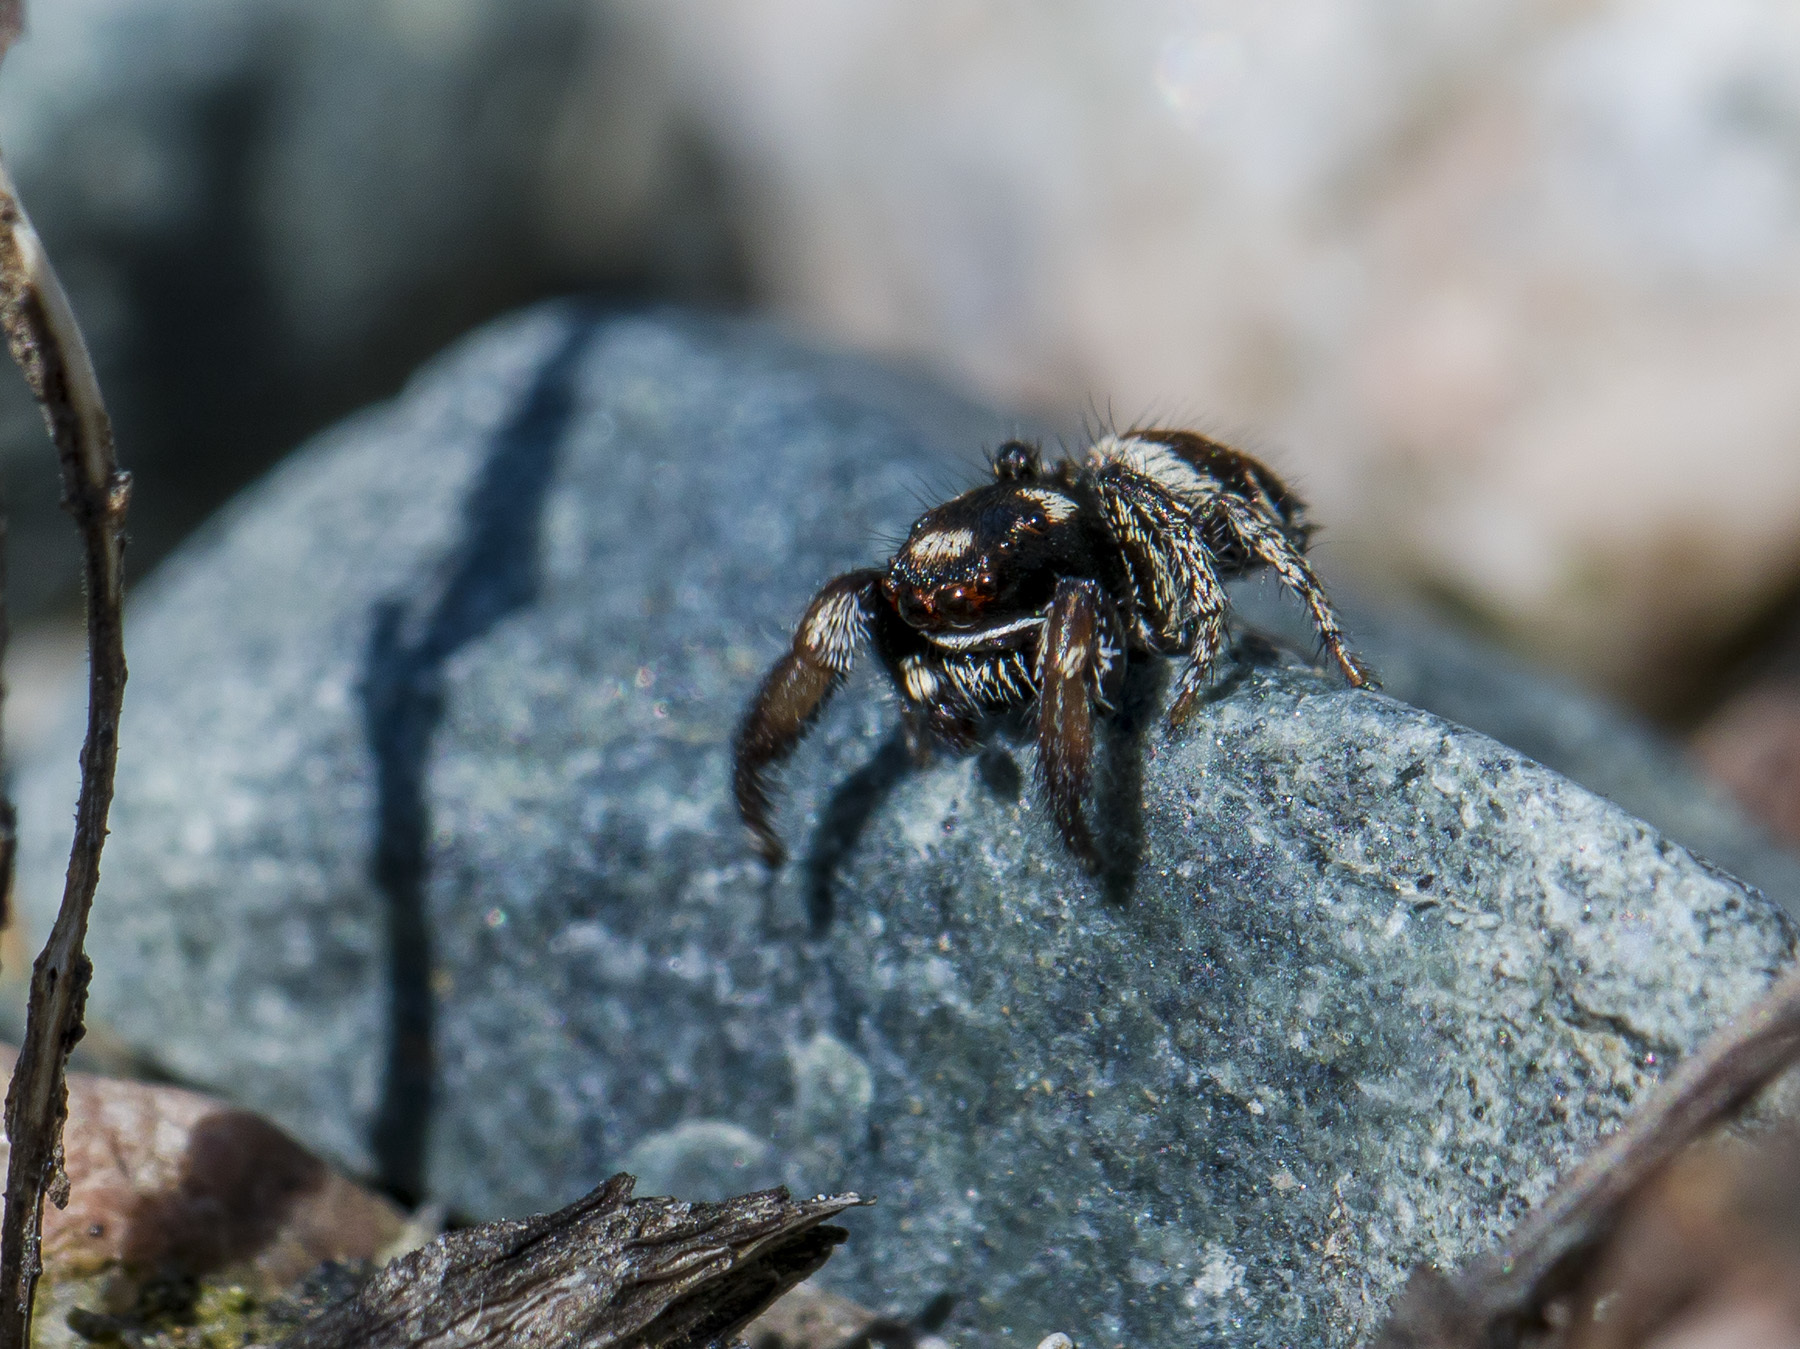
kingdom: Animalia
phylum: Arthropoda
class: Arachnida
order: Araneae
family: Salticidae
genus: Pellenes
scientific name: Pellenes geniculatus
